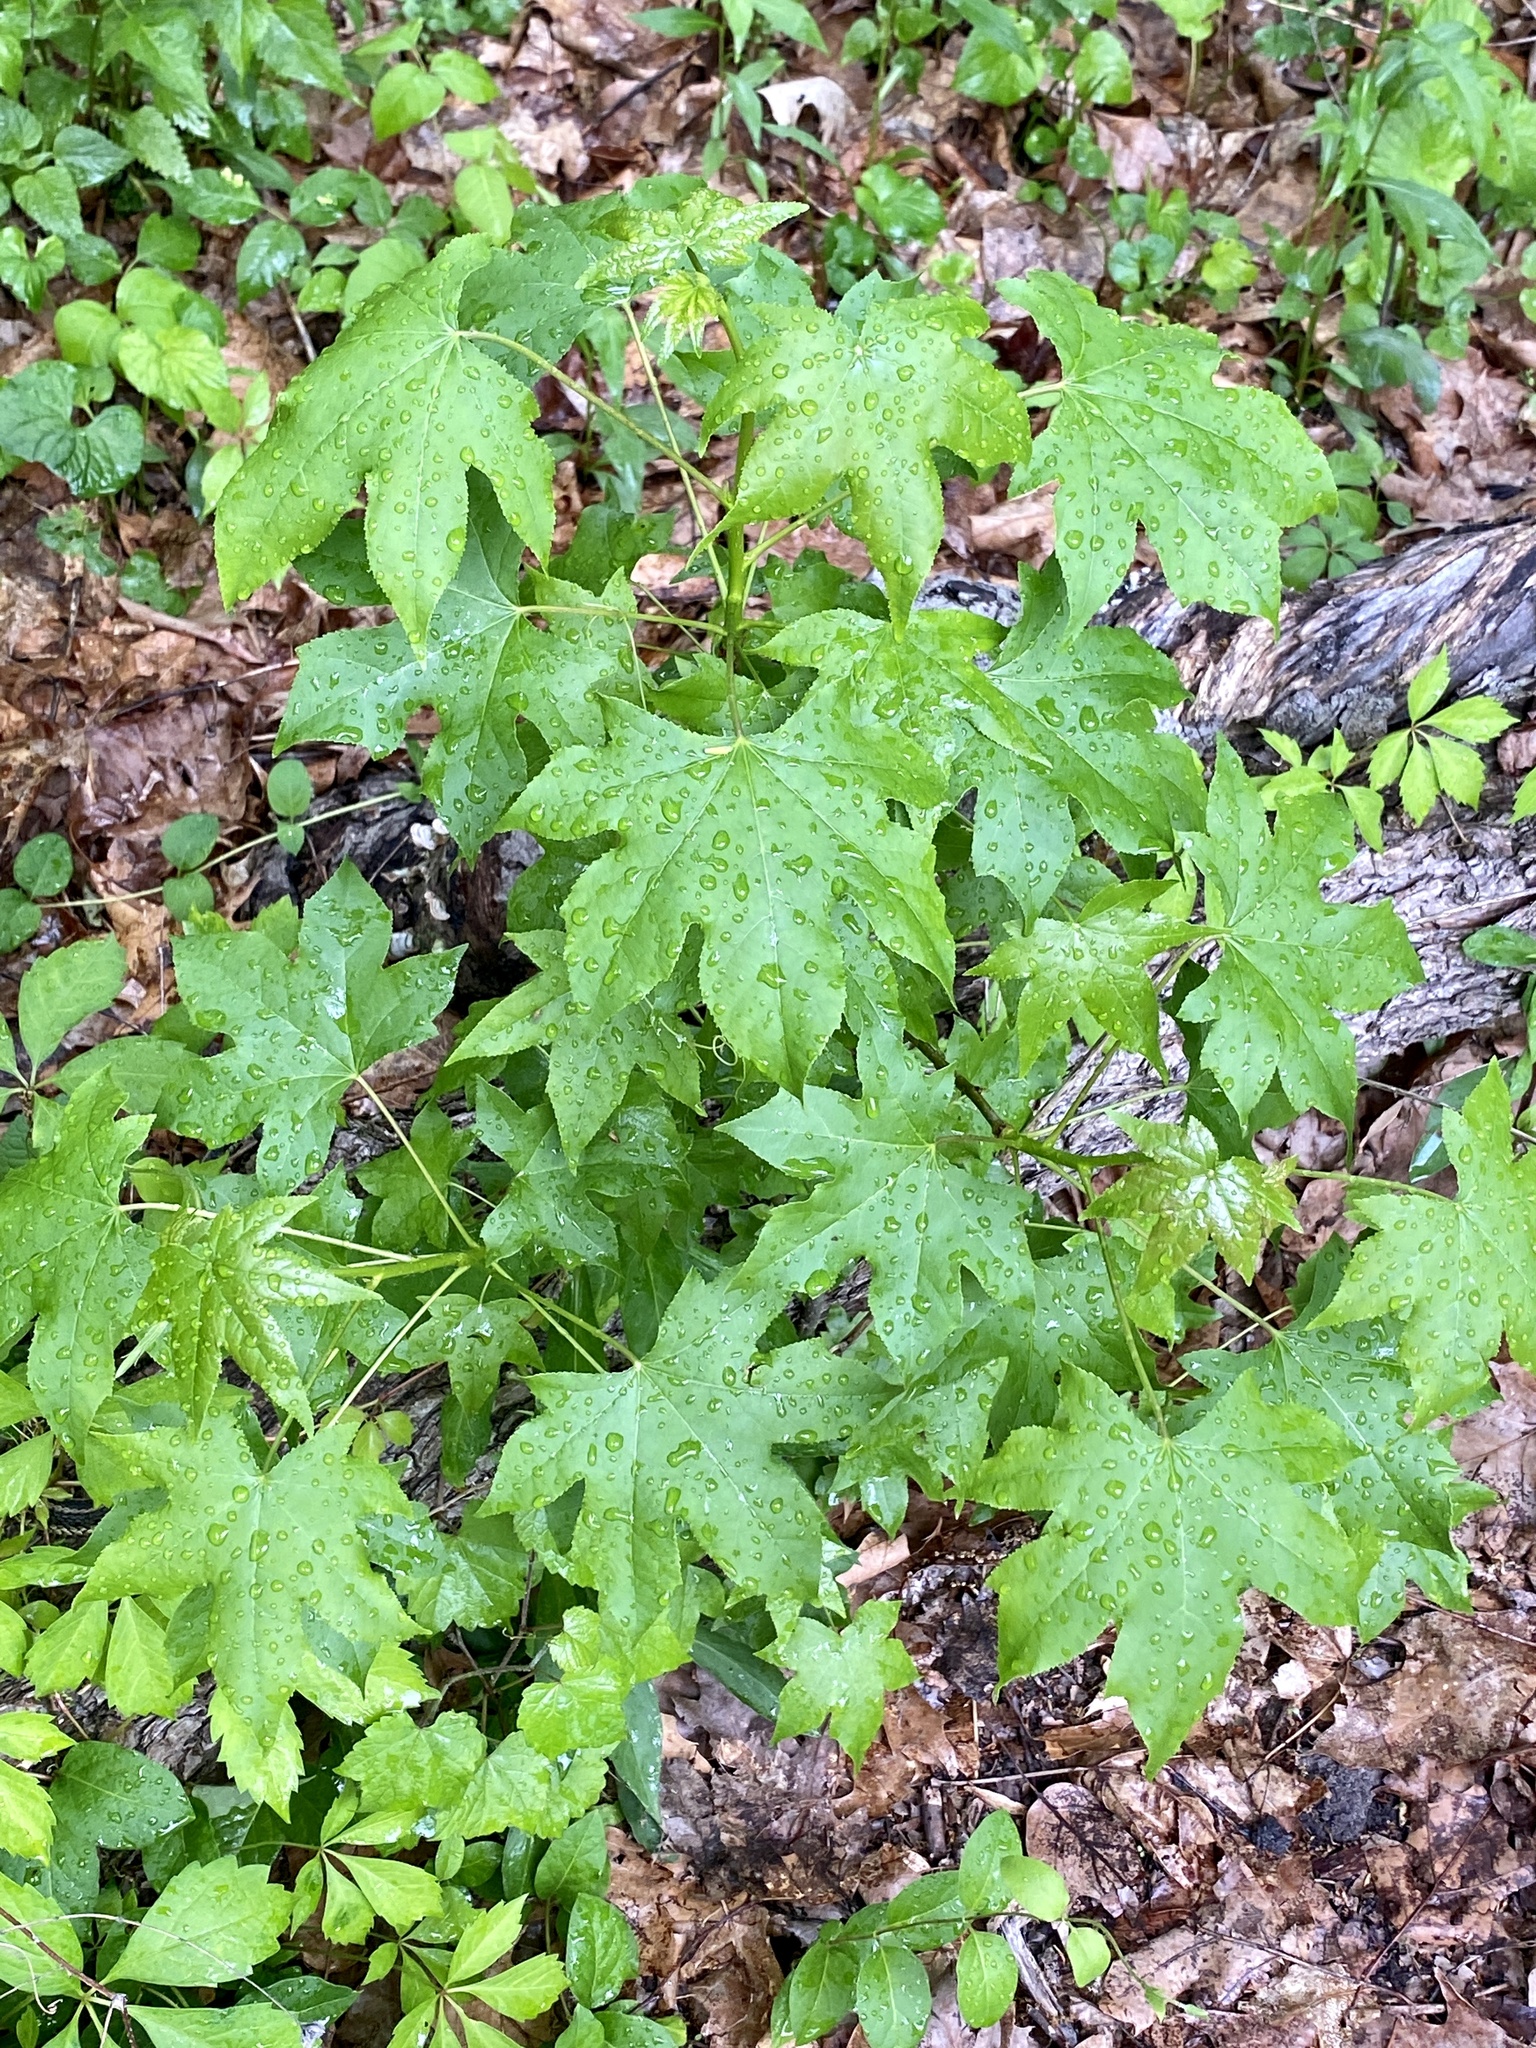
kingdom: Plantae
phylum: Tracheophyta
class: Magnoliopsida
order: Saxifragales
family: Altingiaceae
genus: Liquidambar
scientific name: Liquidambar styraciflua
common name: Sweet gum
